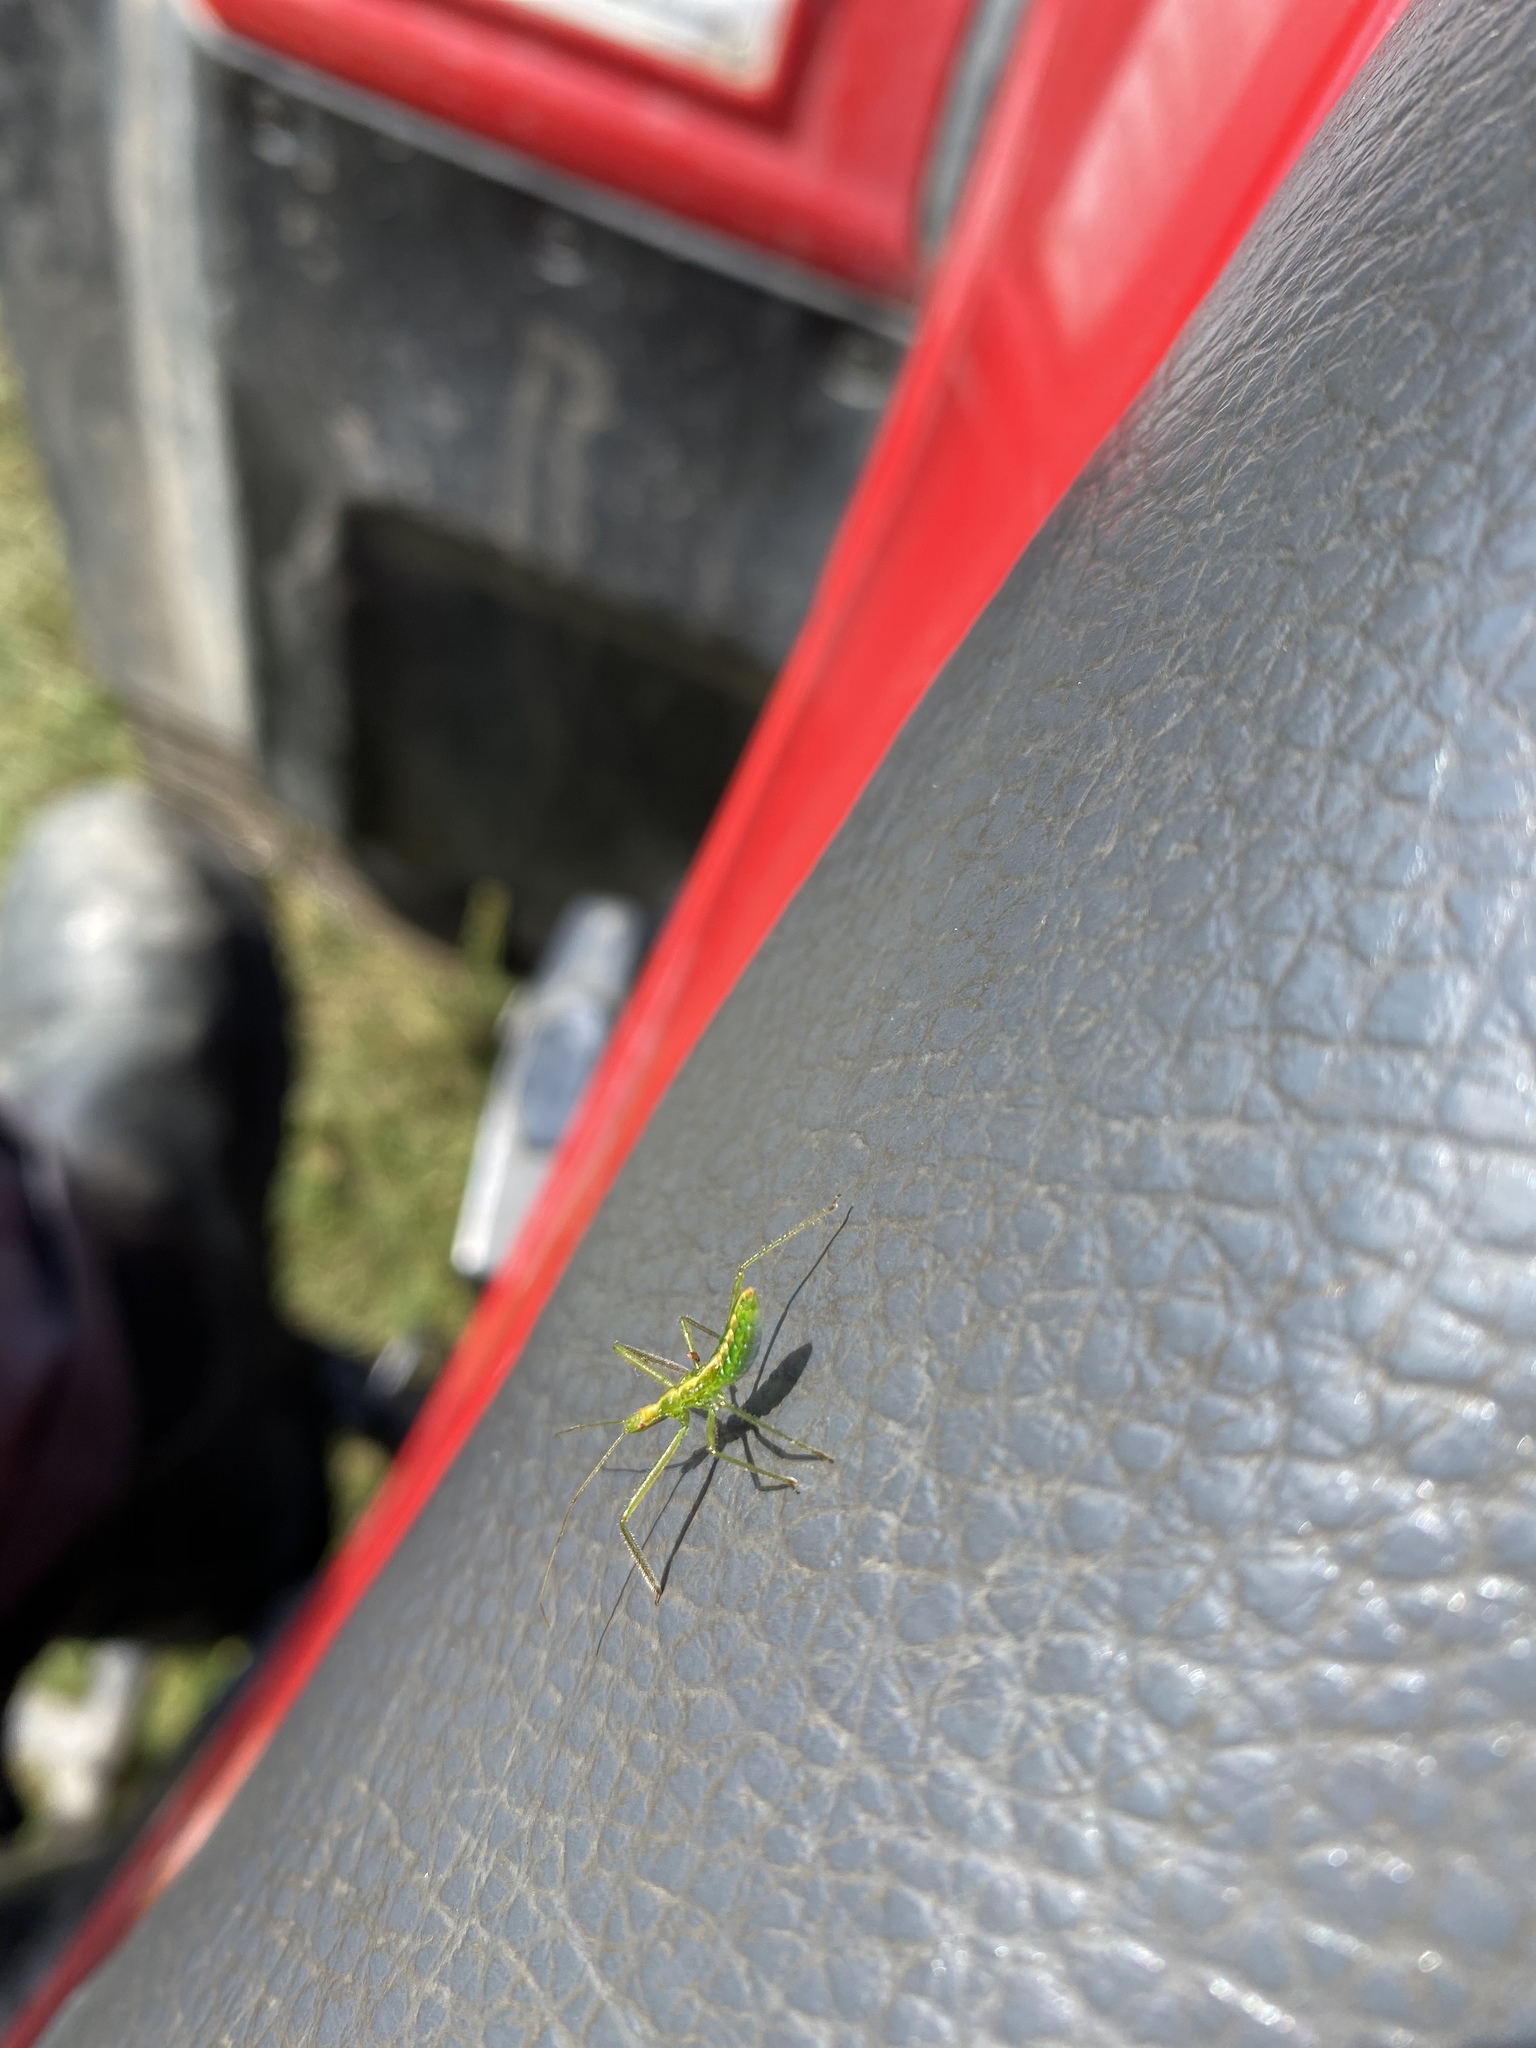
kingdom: Animalia
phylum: Arthropoda
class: Insecta
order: Hemiptera
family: Reduviidae
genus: Zelus
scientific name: Zelus luridus
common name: Pale green assassin bug
